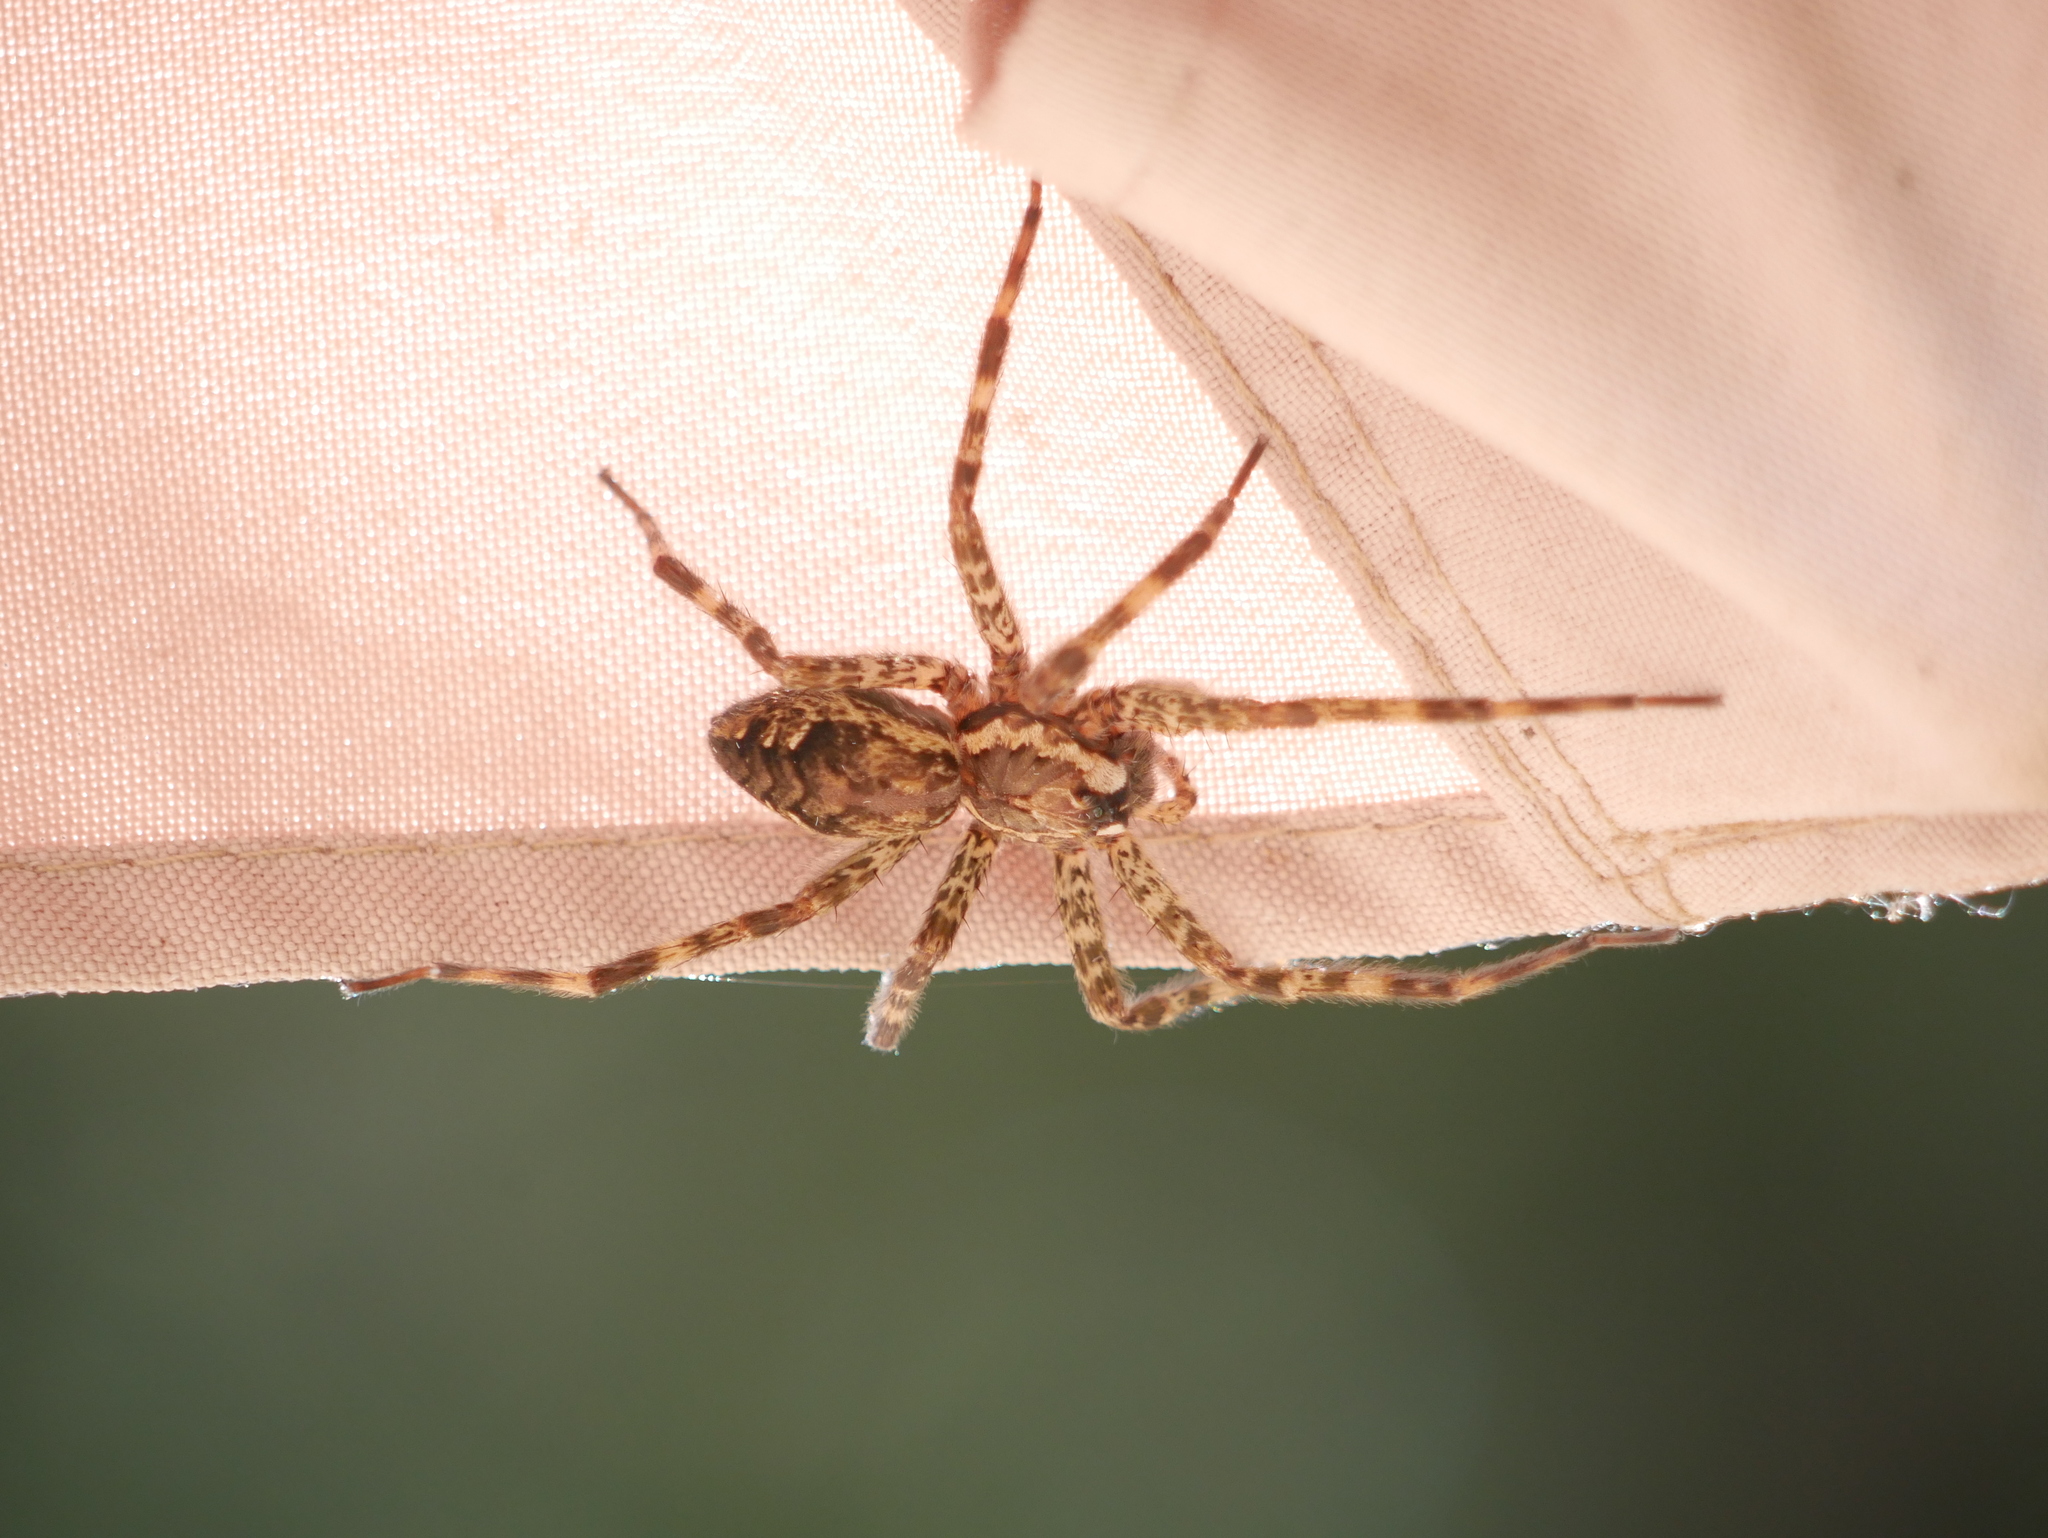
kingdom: Animalia
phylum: Arthropoda
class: Arachnida
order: Araneae
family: Pisauridae
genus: Dolomedes
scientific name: Dolomedes tenebrosus
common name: Dark fishing spider
